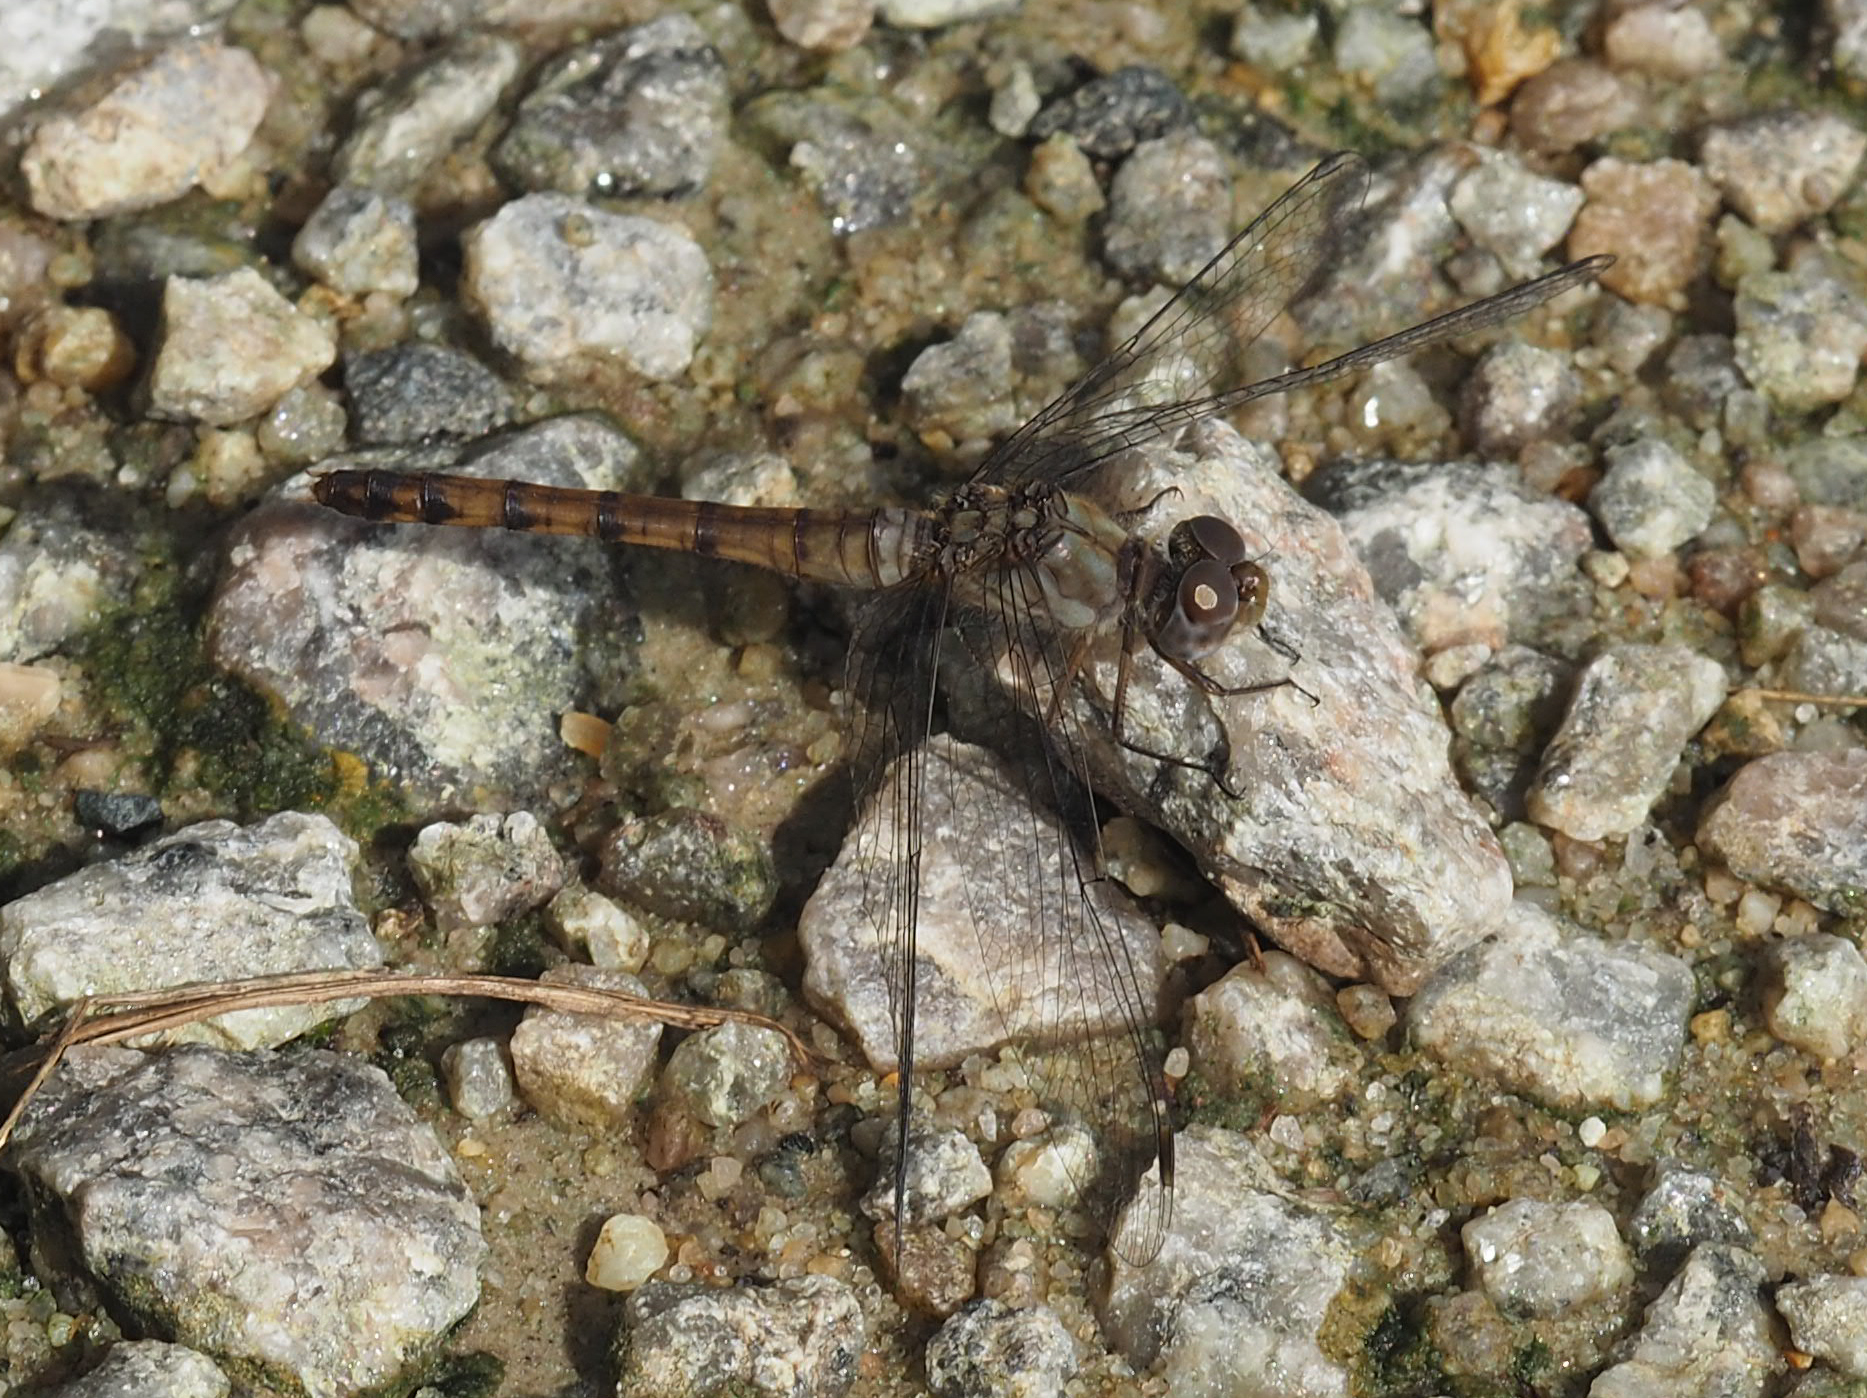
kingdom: Animalia
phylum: Arthropoda
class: Insecta
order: Odonata
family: Libellulidae
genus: Sympetrum
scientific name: Sympetrum ambiguum
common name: Blue-faced meadowhawk
